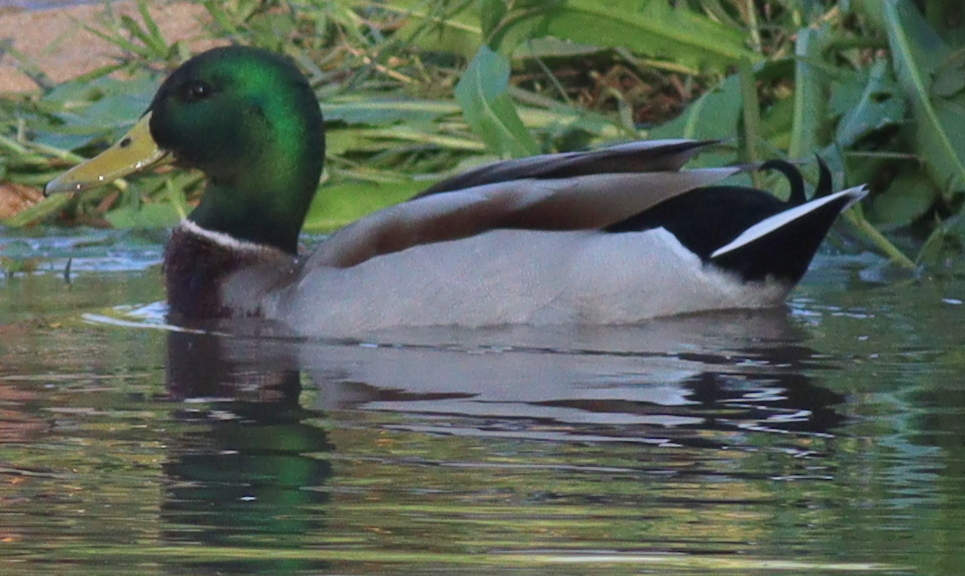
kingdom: Animalia
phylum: Chordata
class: Aves
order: Anseriformes
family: Anatidae
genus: Anas
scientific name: Anas platyrhynchos
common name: Mallard
